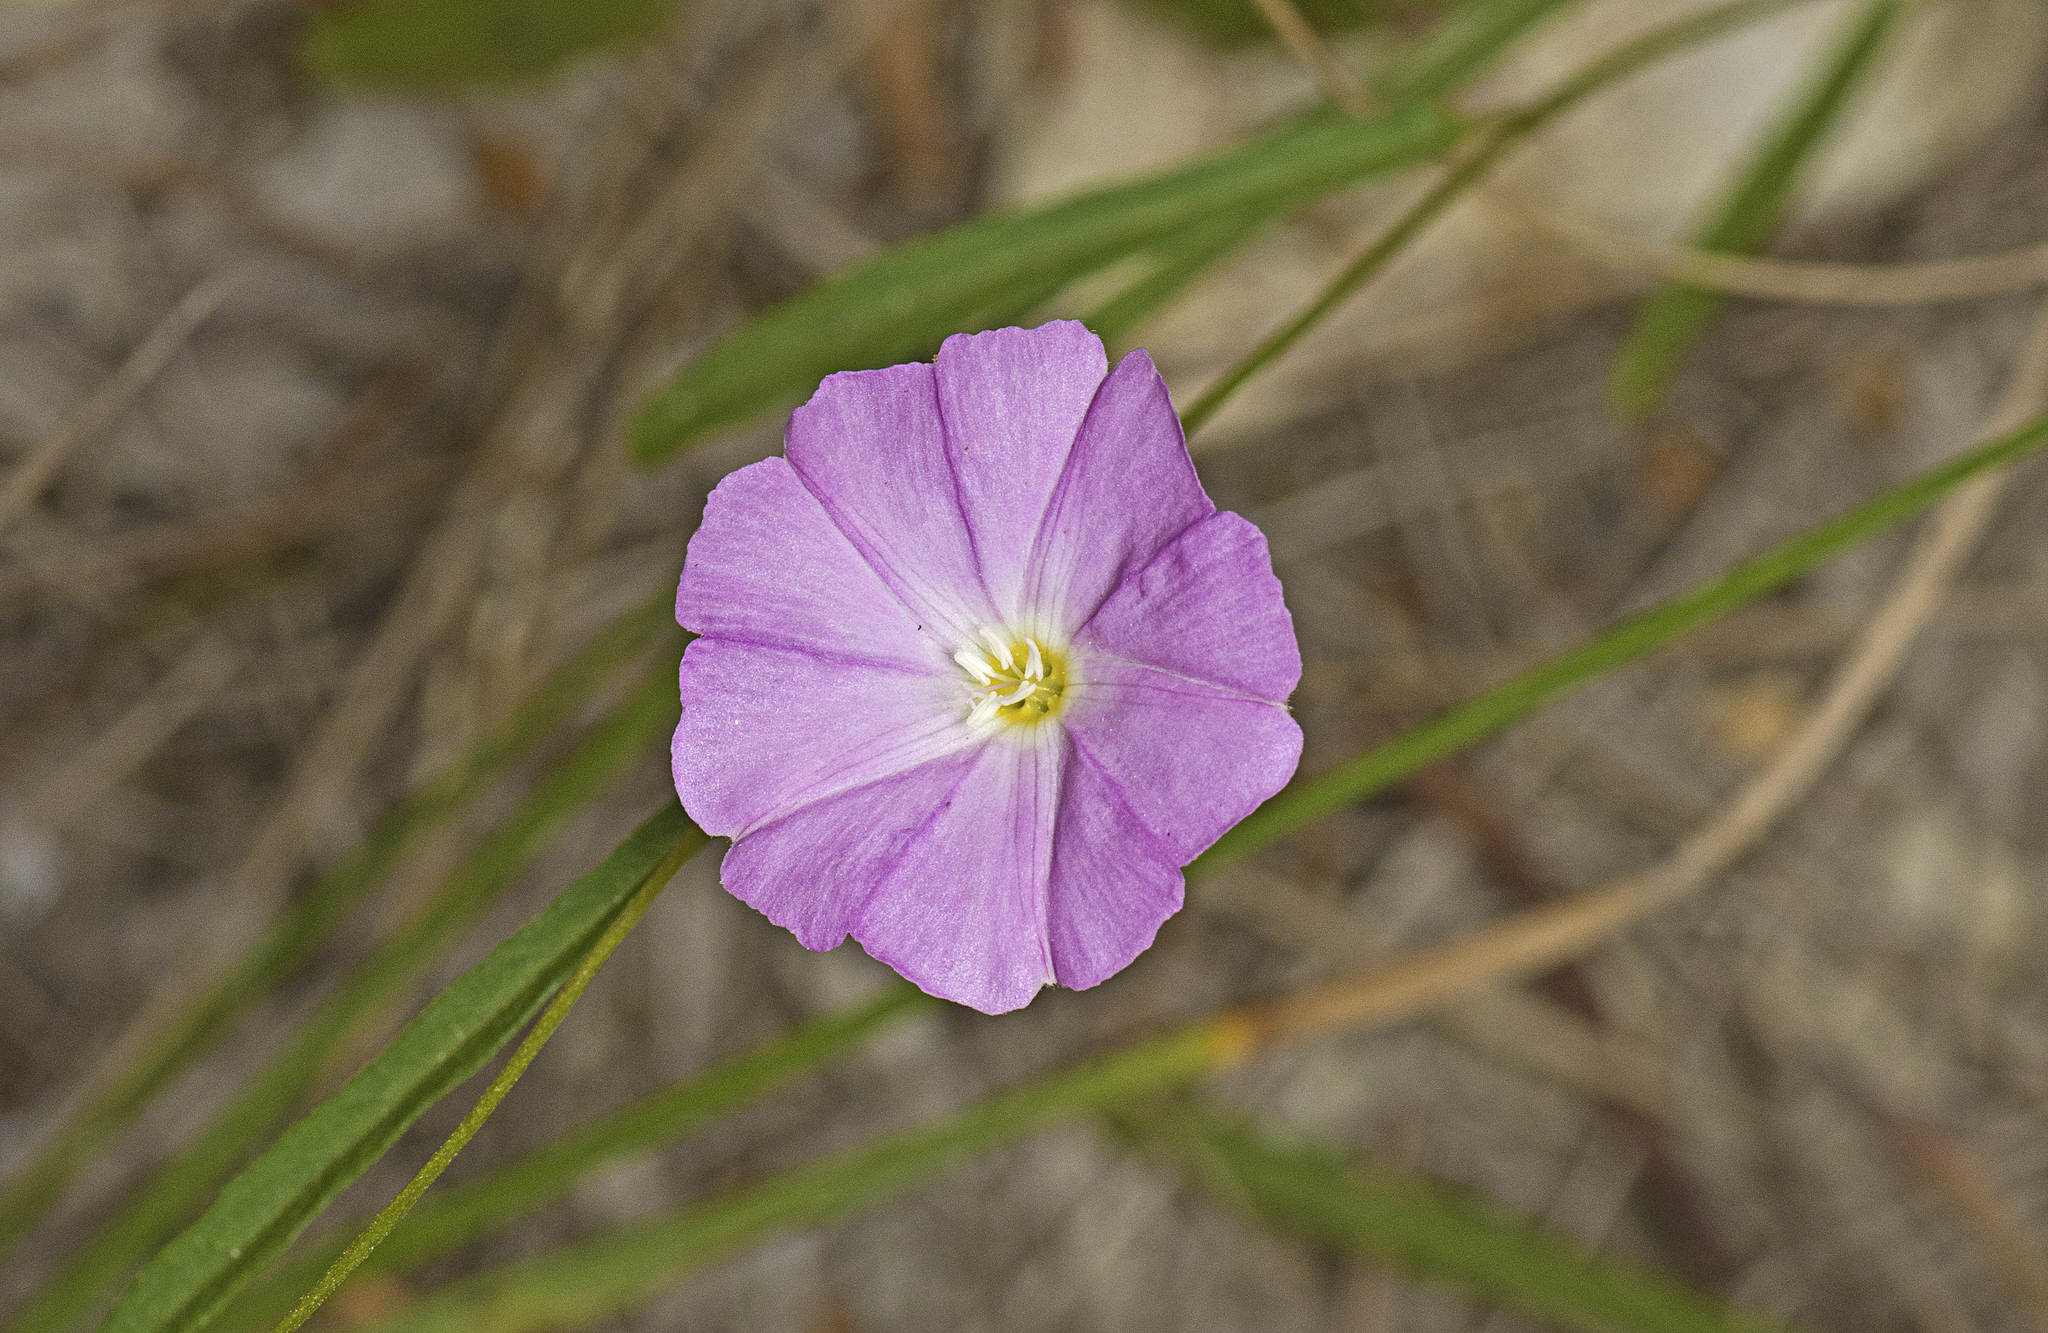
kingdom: Plantae
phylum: Tracheophyta
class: Magnoliopsida
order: Solanales
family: Convolvulaceae
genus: Polymeria
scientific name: Polymeria calycina
